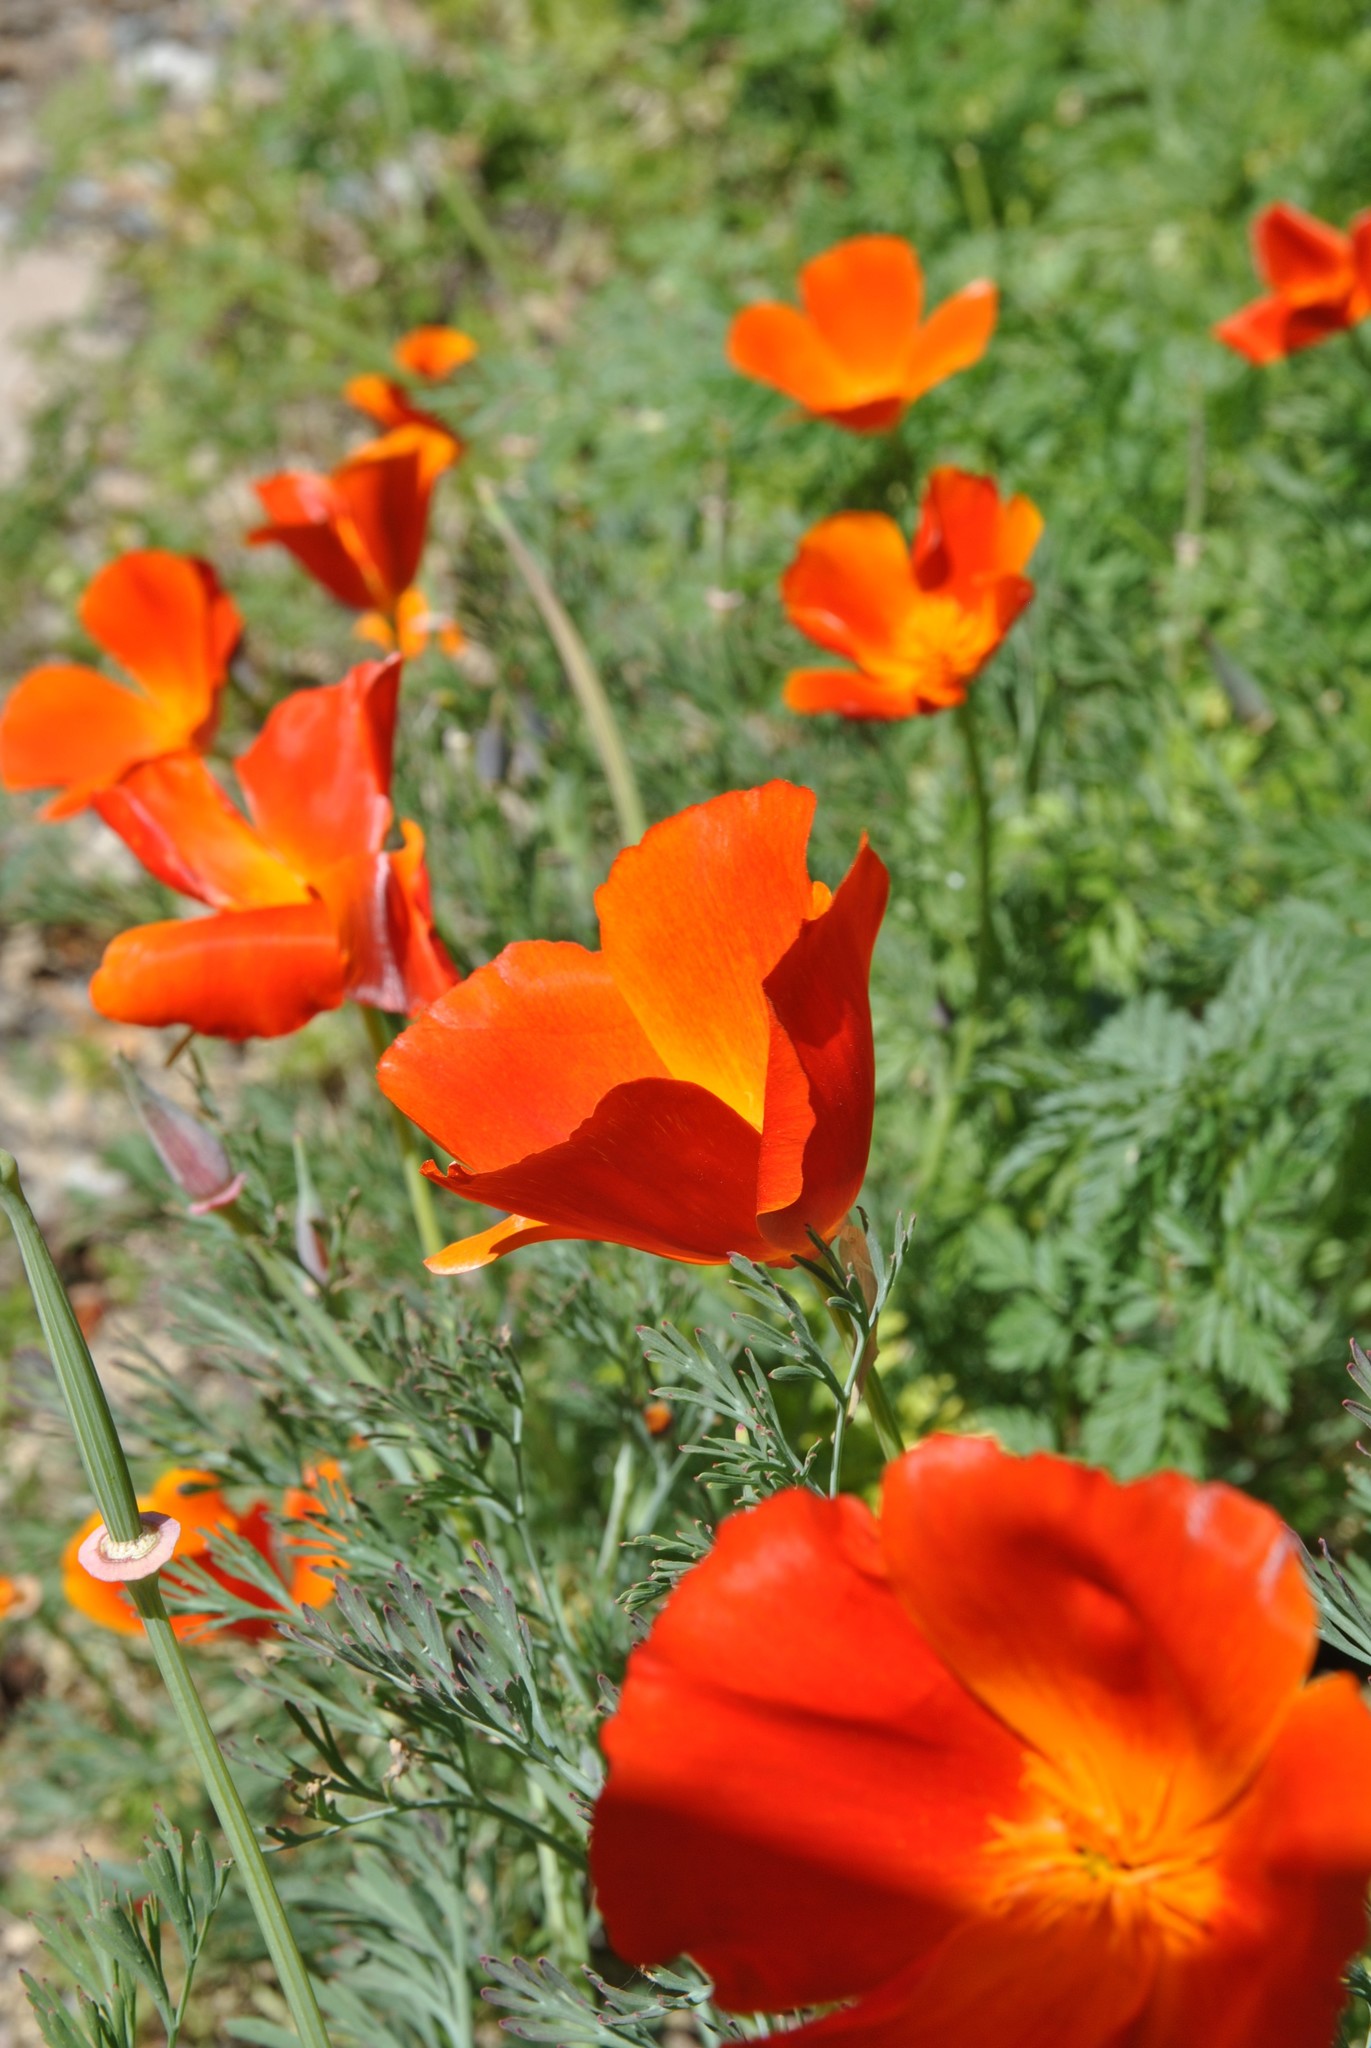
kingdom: Plantae
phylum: Tracheophyta
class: Magnoliopsida
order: Ranunculales
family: Papaveraceae
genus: Eschscholzia
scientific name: Eschscholzia californica
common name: California poppy
